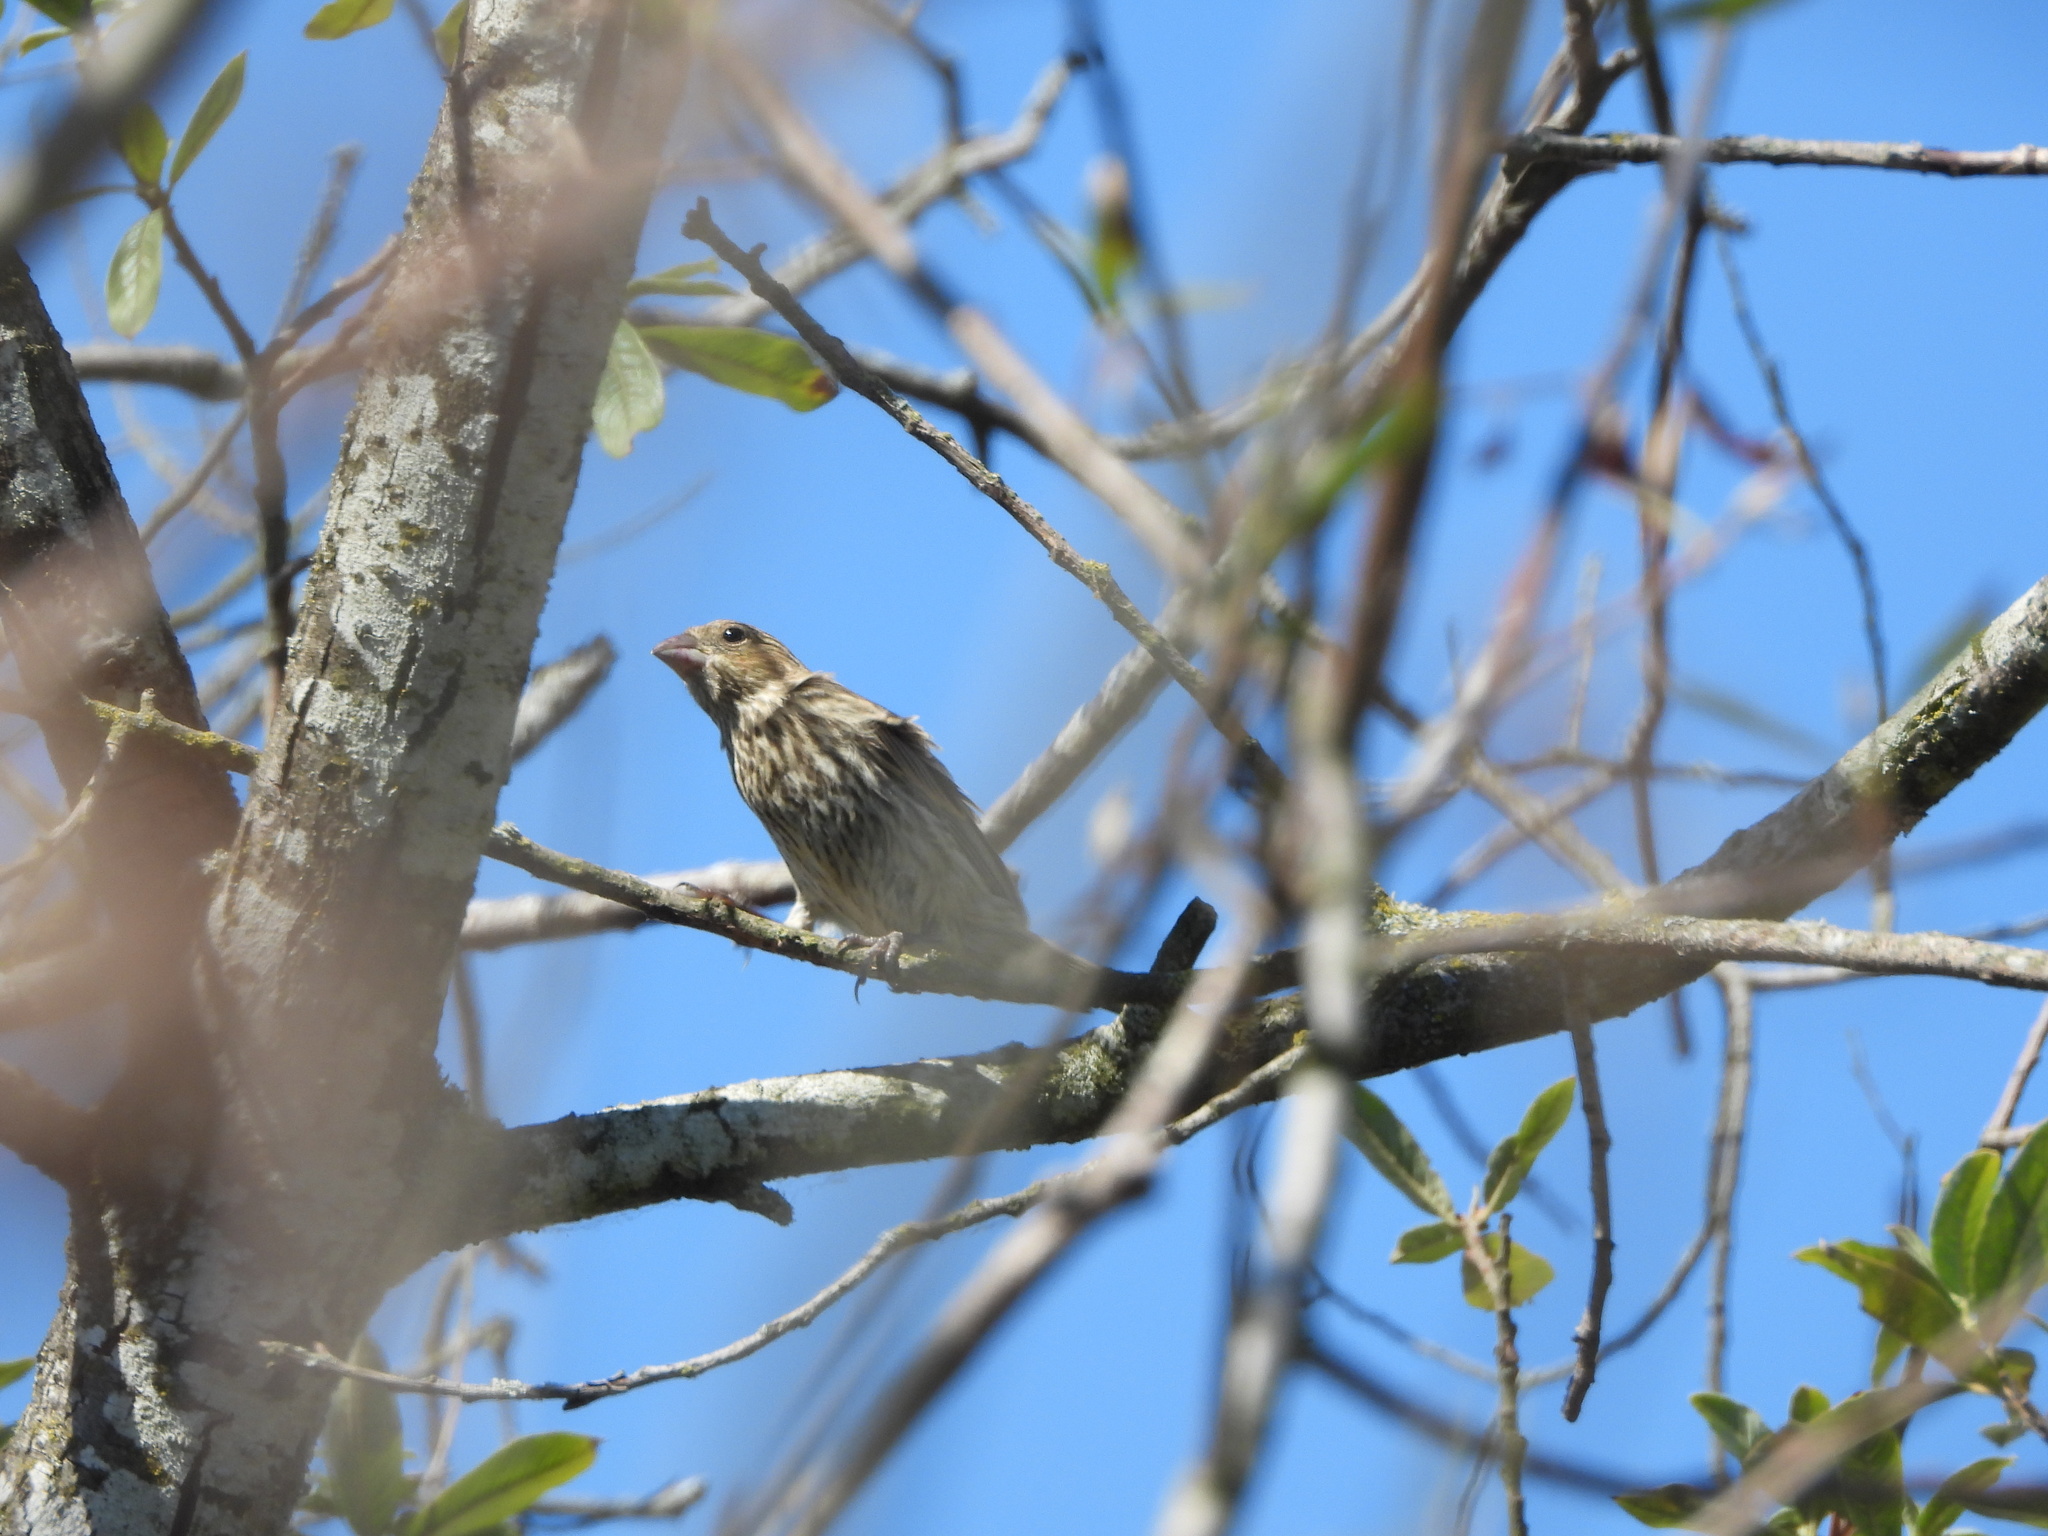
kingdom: Animalia
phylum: Chordata
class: Aves
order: Passeriformes
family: Fringillidae
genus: Haemorhous
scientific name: Haemorhous mexicanus
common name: House finch
